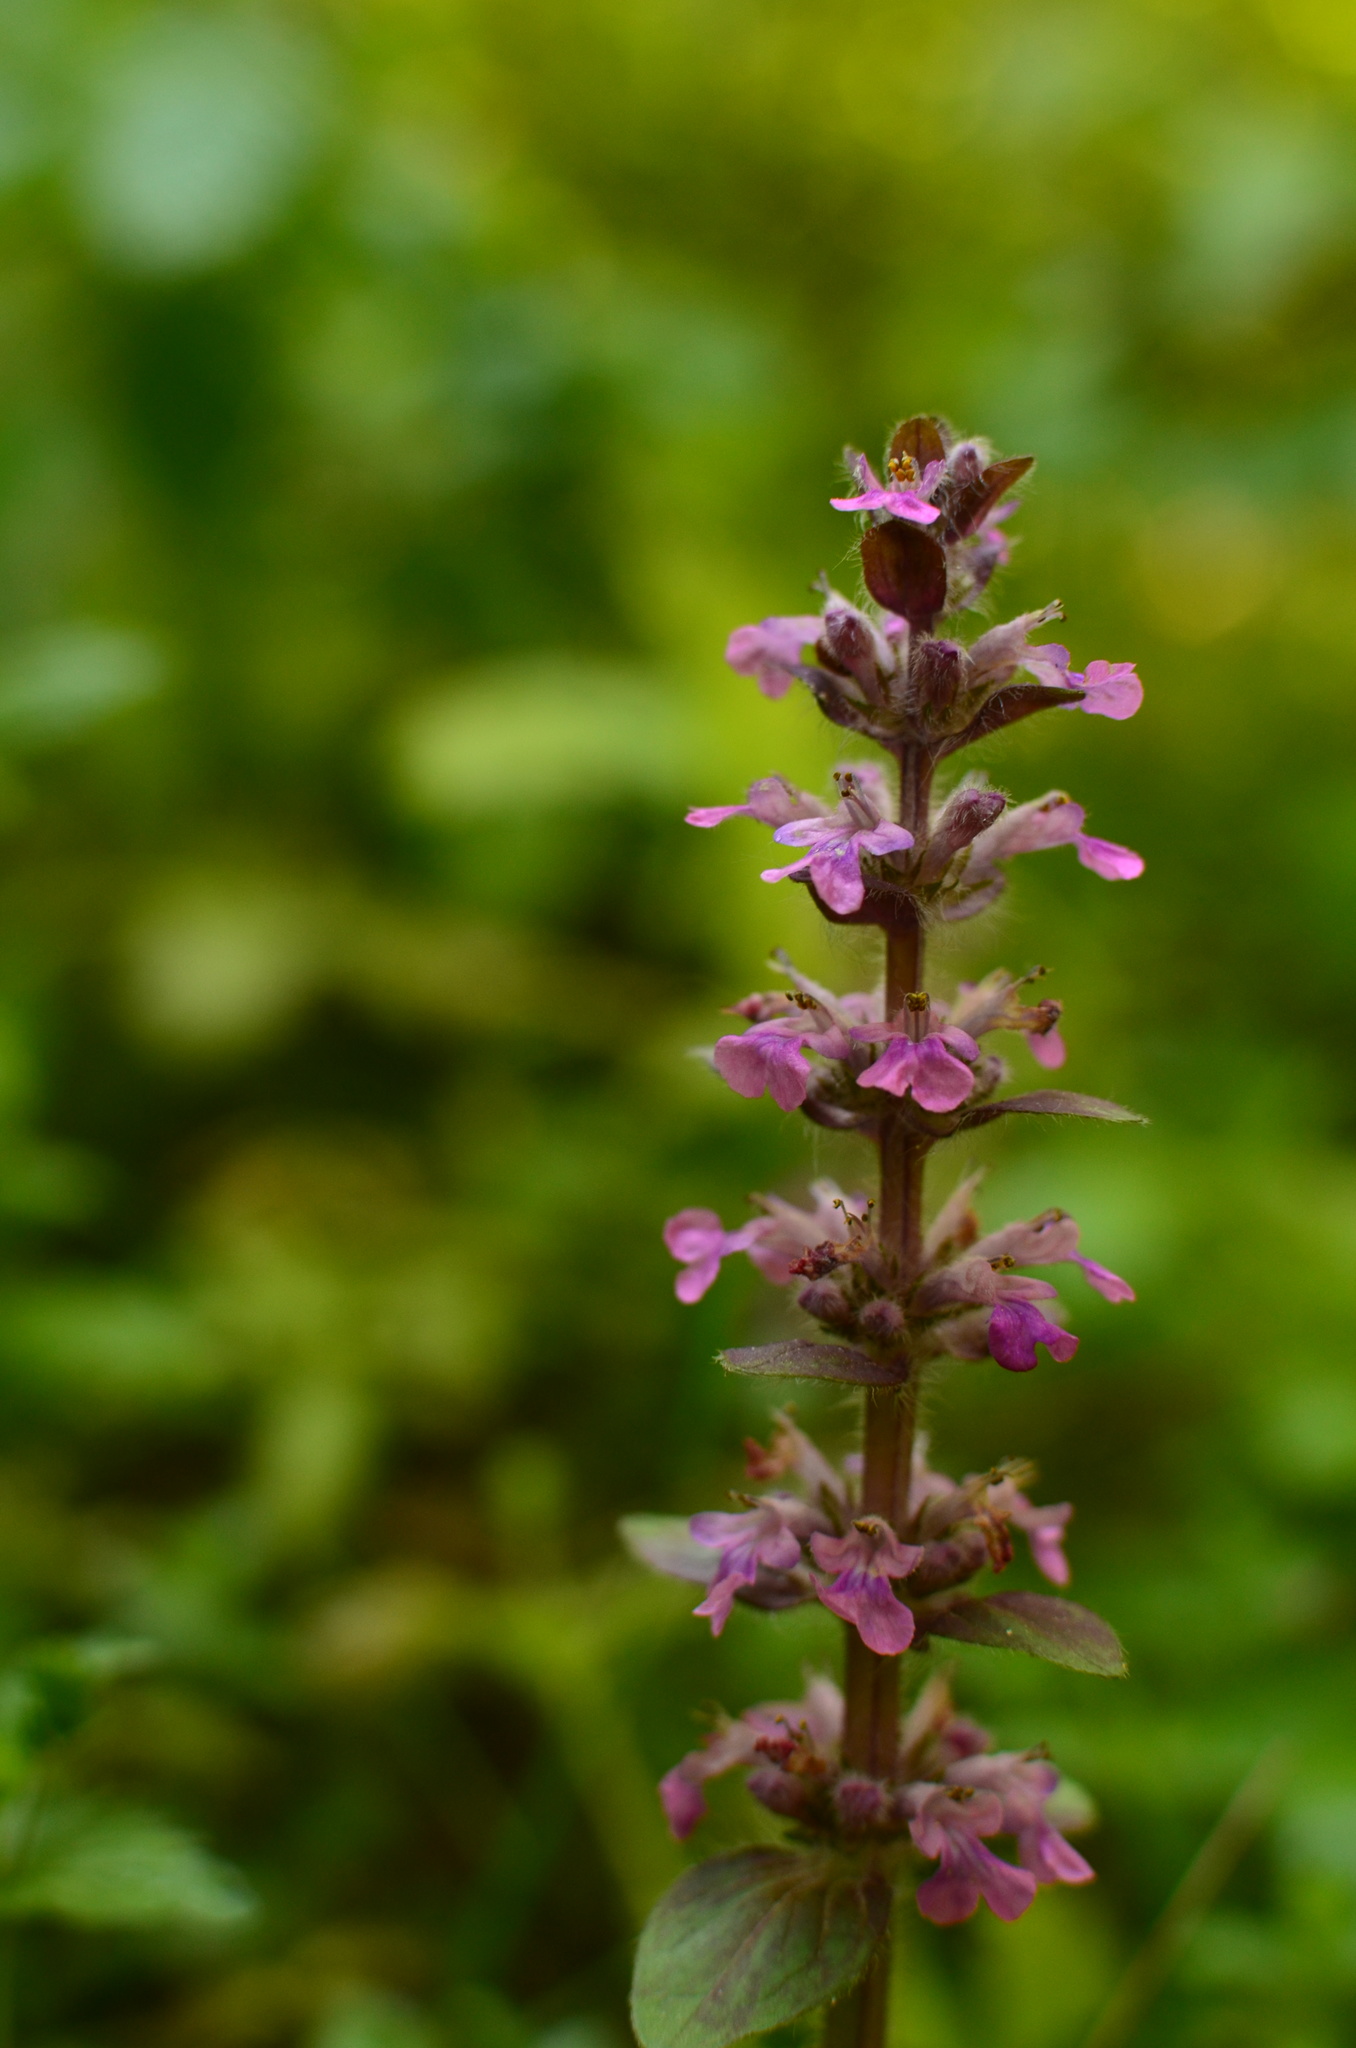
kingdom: Plantae
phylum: Tracheophyta
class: Magnoliopsida
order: Lamiales
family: Lamiaceae
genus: Ajuga
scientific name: Ajuga reptans
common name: Bugle
